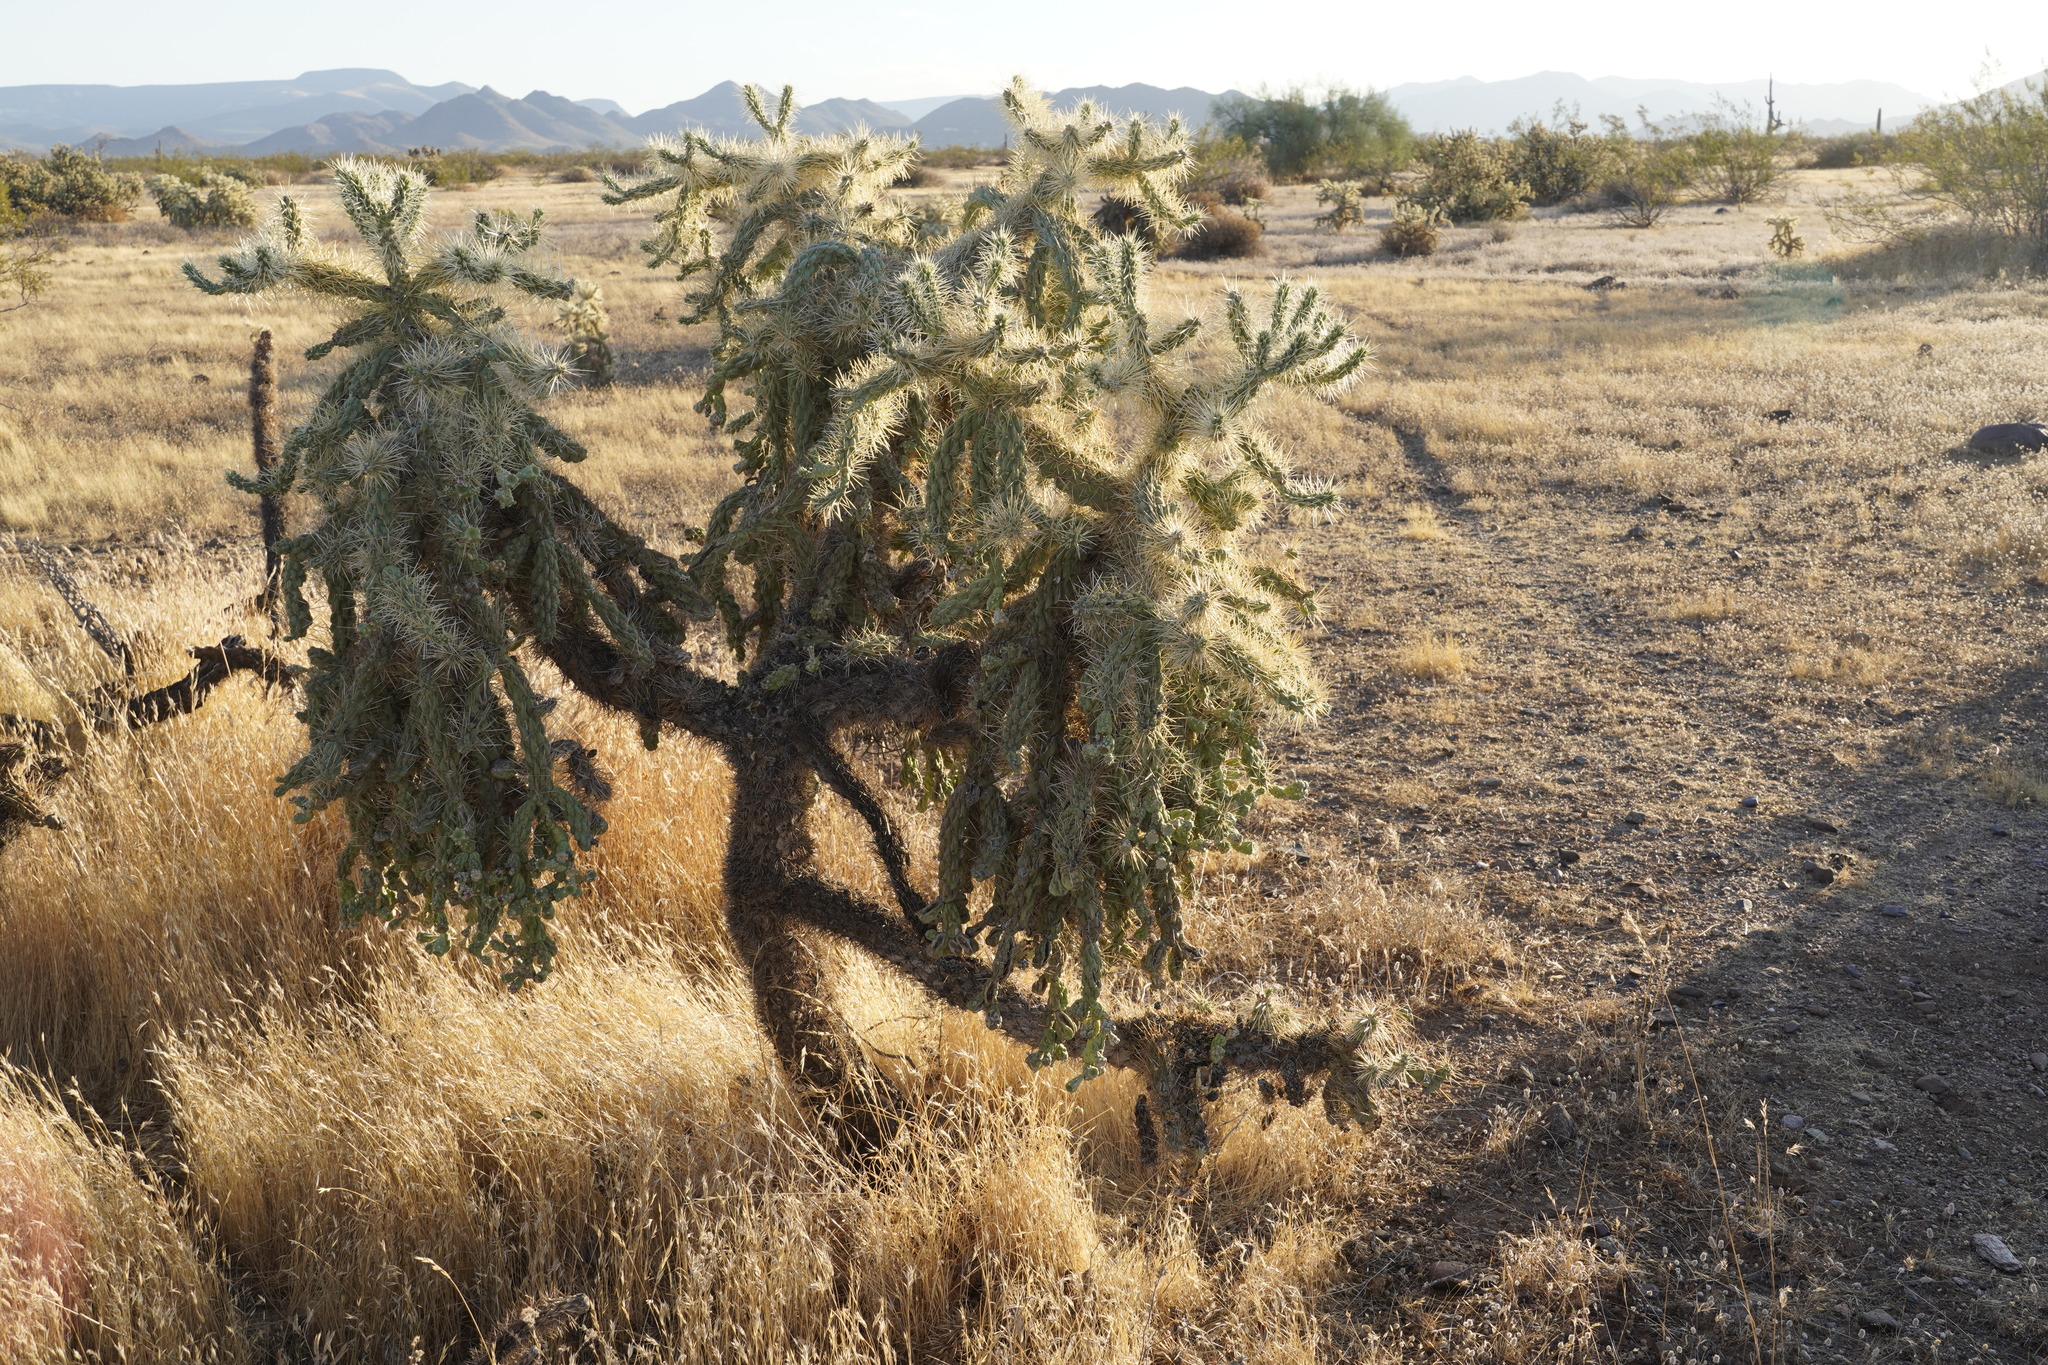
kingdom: Plantae
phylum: Tracheophyta
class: Magnoliopsida
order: Caryophyllales
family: Cactaceae
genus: Cylindropuntia
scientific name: Cylindropuntia fulgida
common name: Jumping cholla
